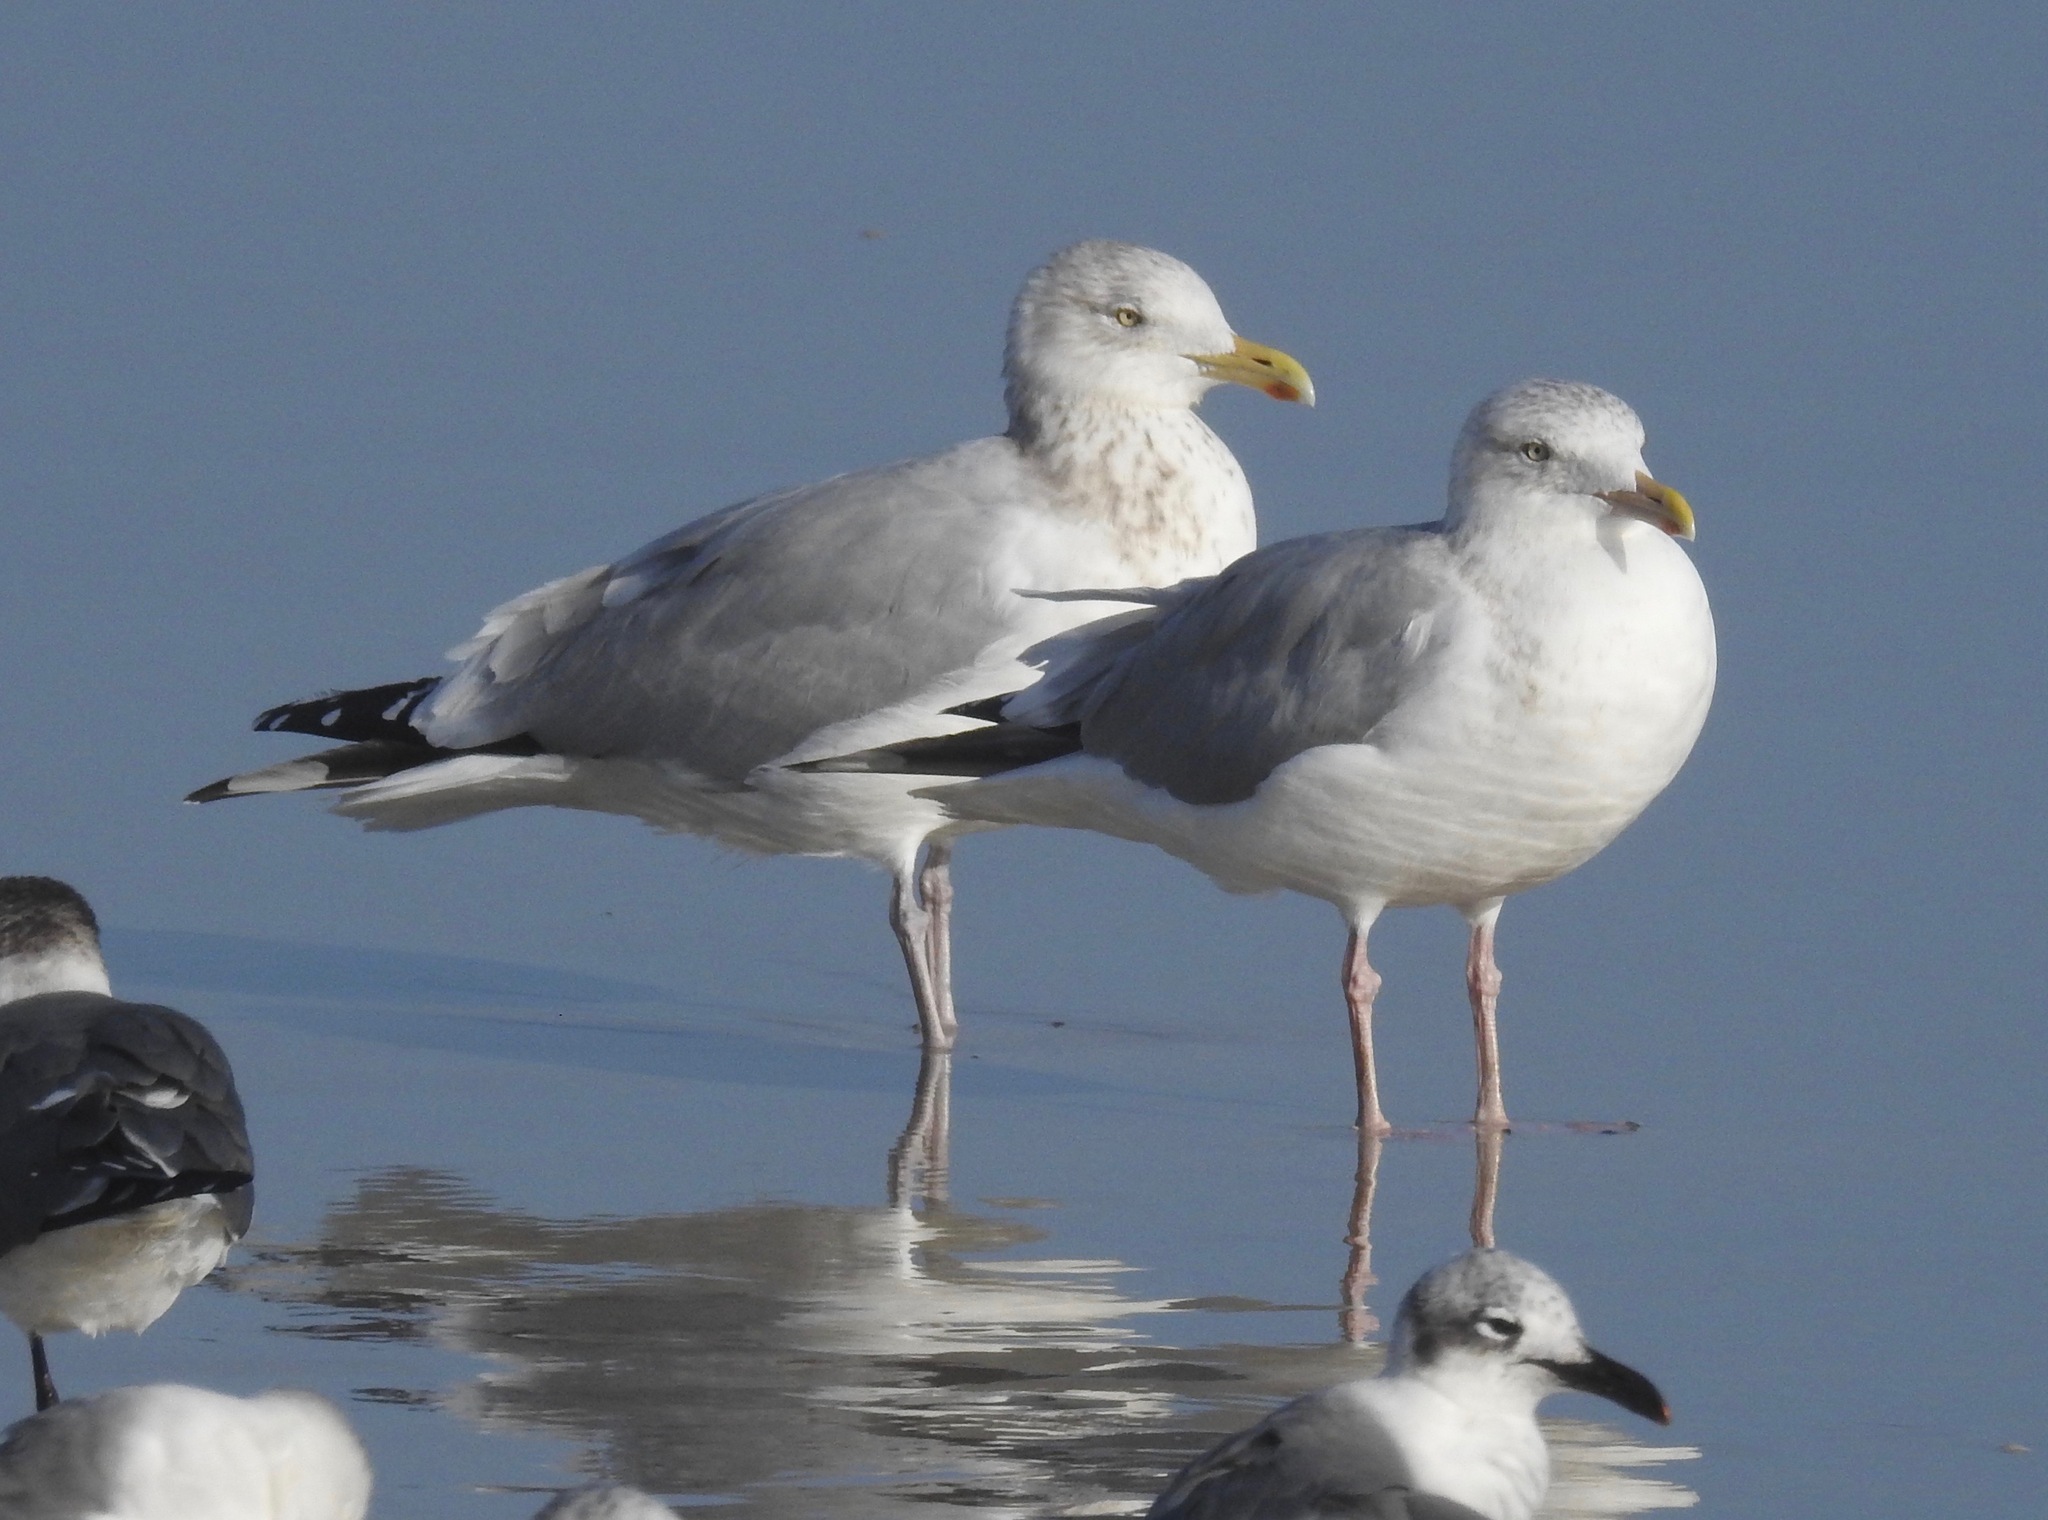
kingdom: Animalia
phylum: Chordata
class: Aves
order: Charadriiformes
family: Laridae
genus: Larus
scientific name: Larus argentatus
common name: Herring gull
